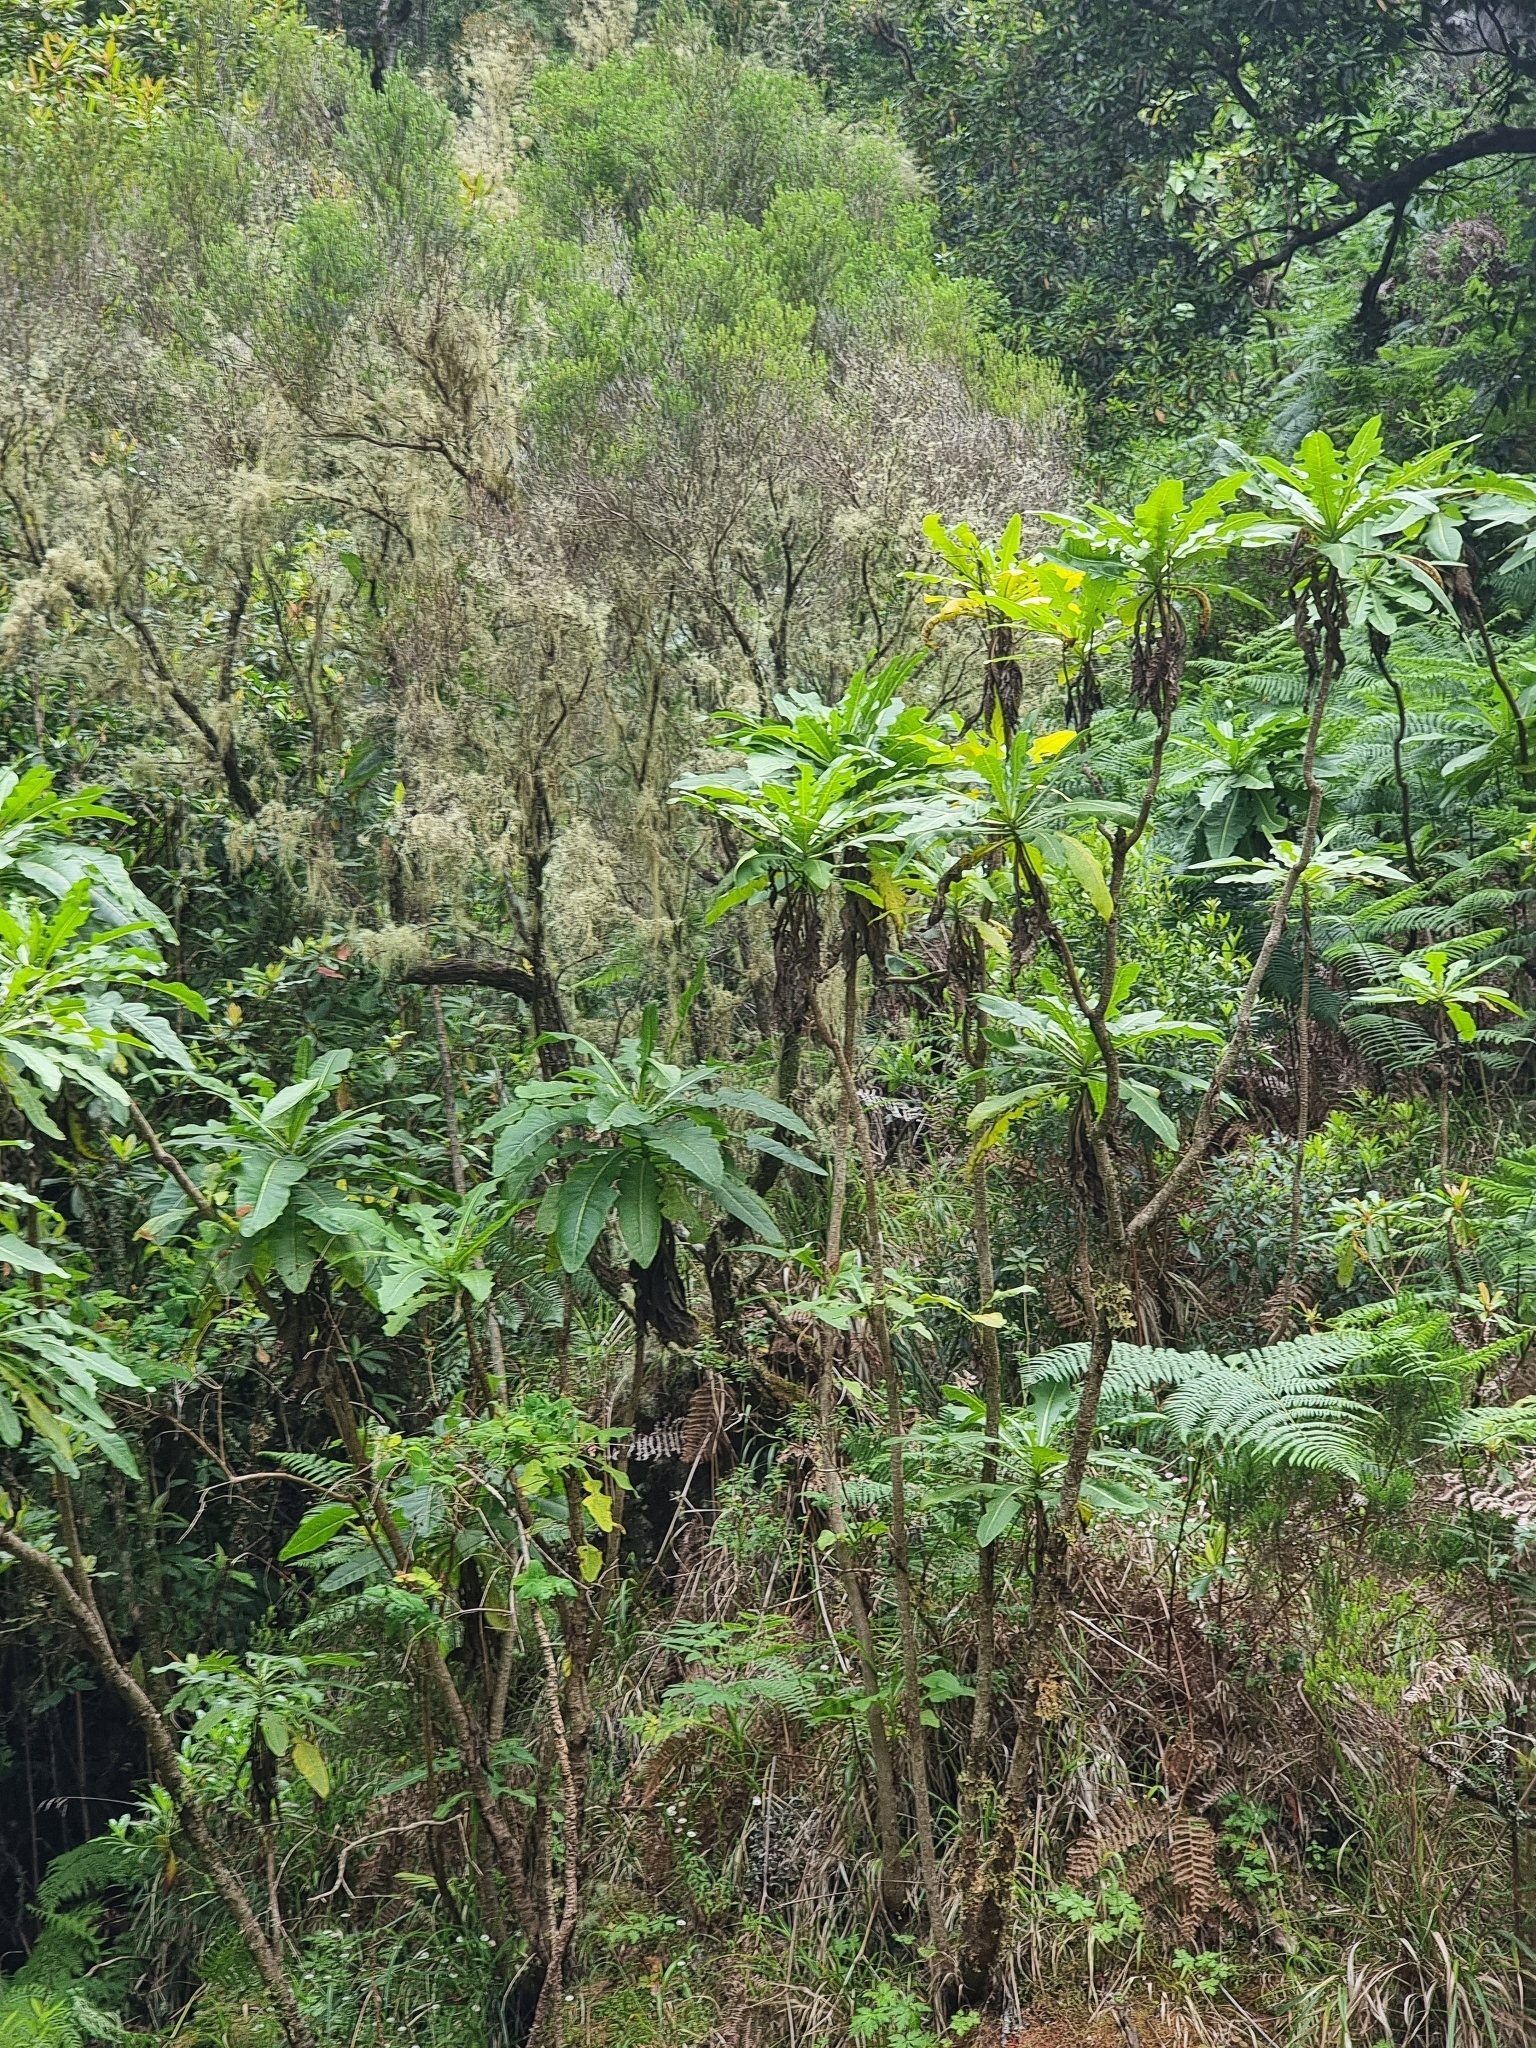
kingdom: Plantae
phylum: Tracheophyta
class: Magnoliopsida
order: Asterales
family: Asteraceae
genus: Sonchus
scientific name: Sonchus fruticosus
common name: Shrubby sow-thistle
